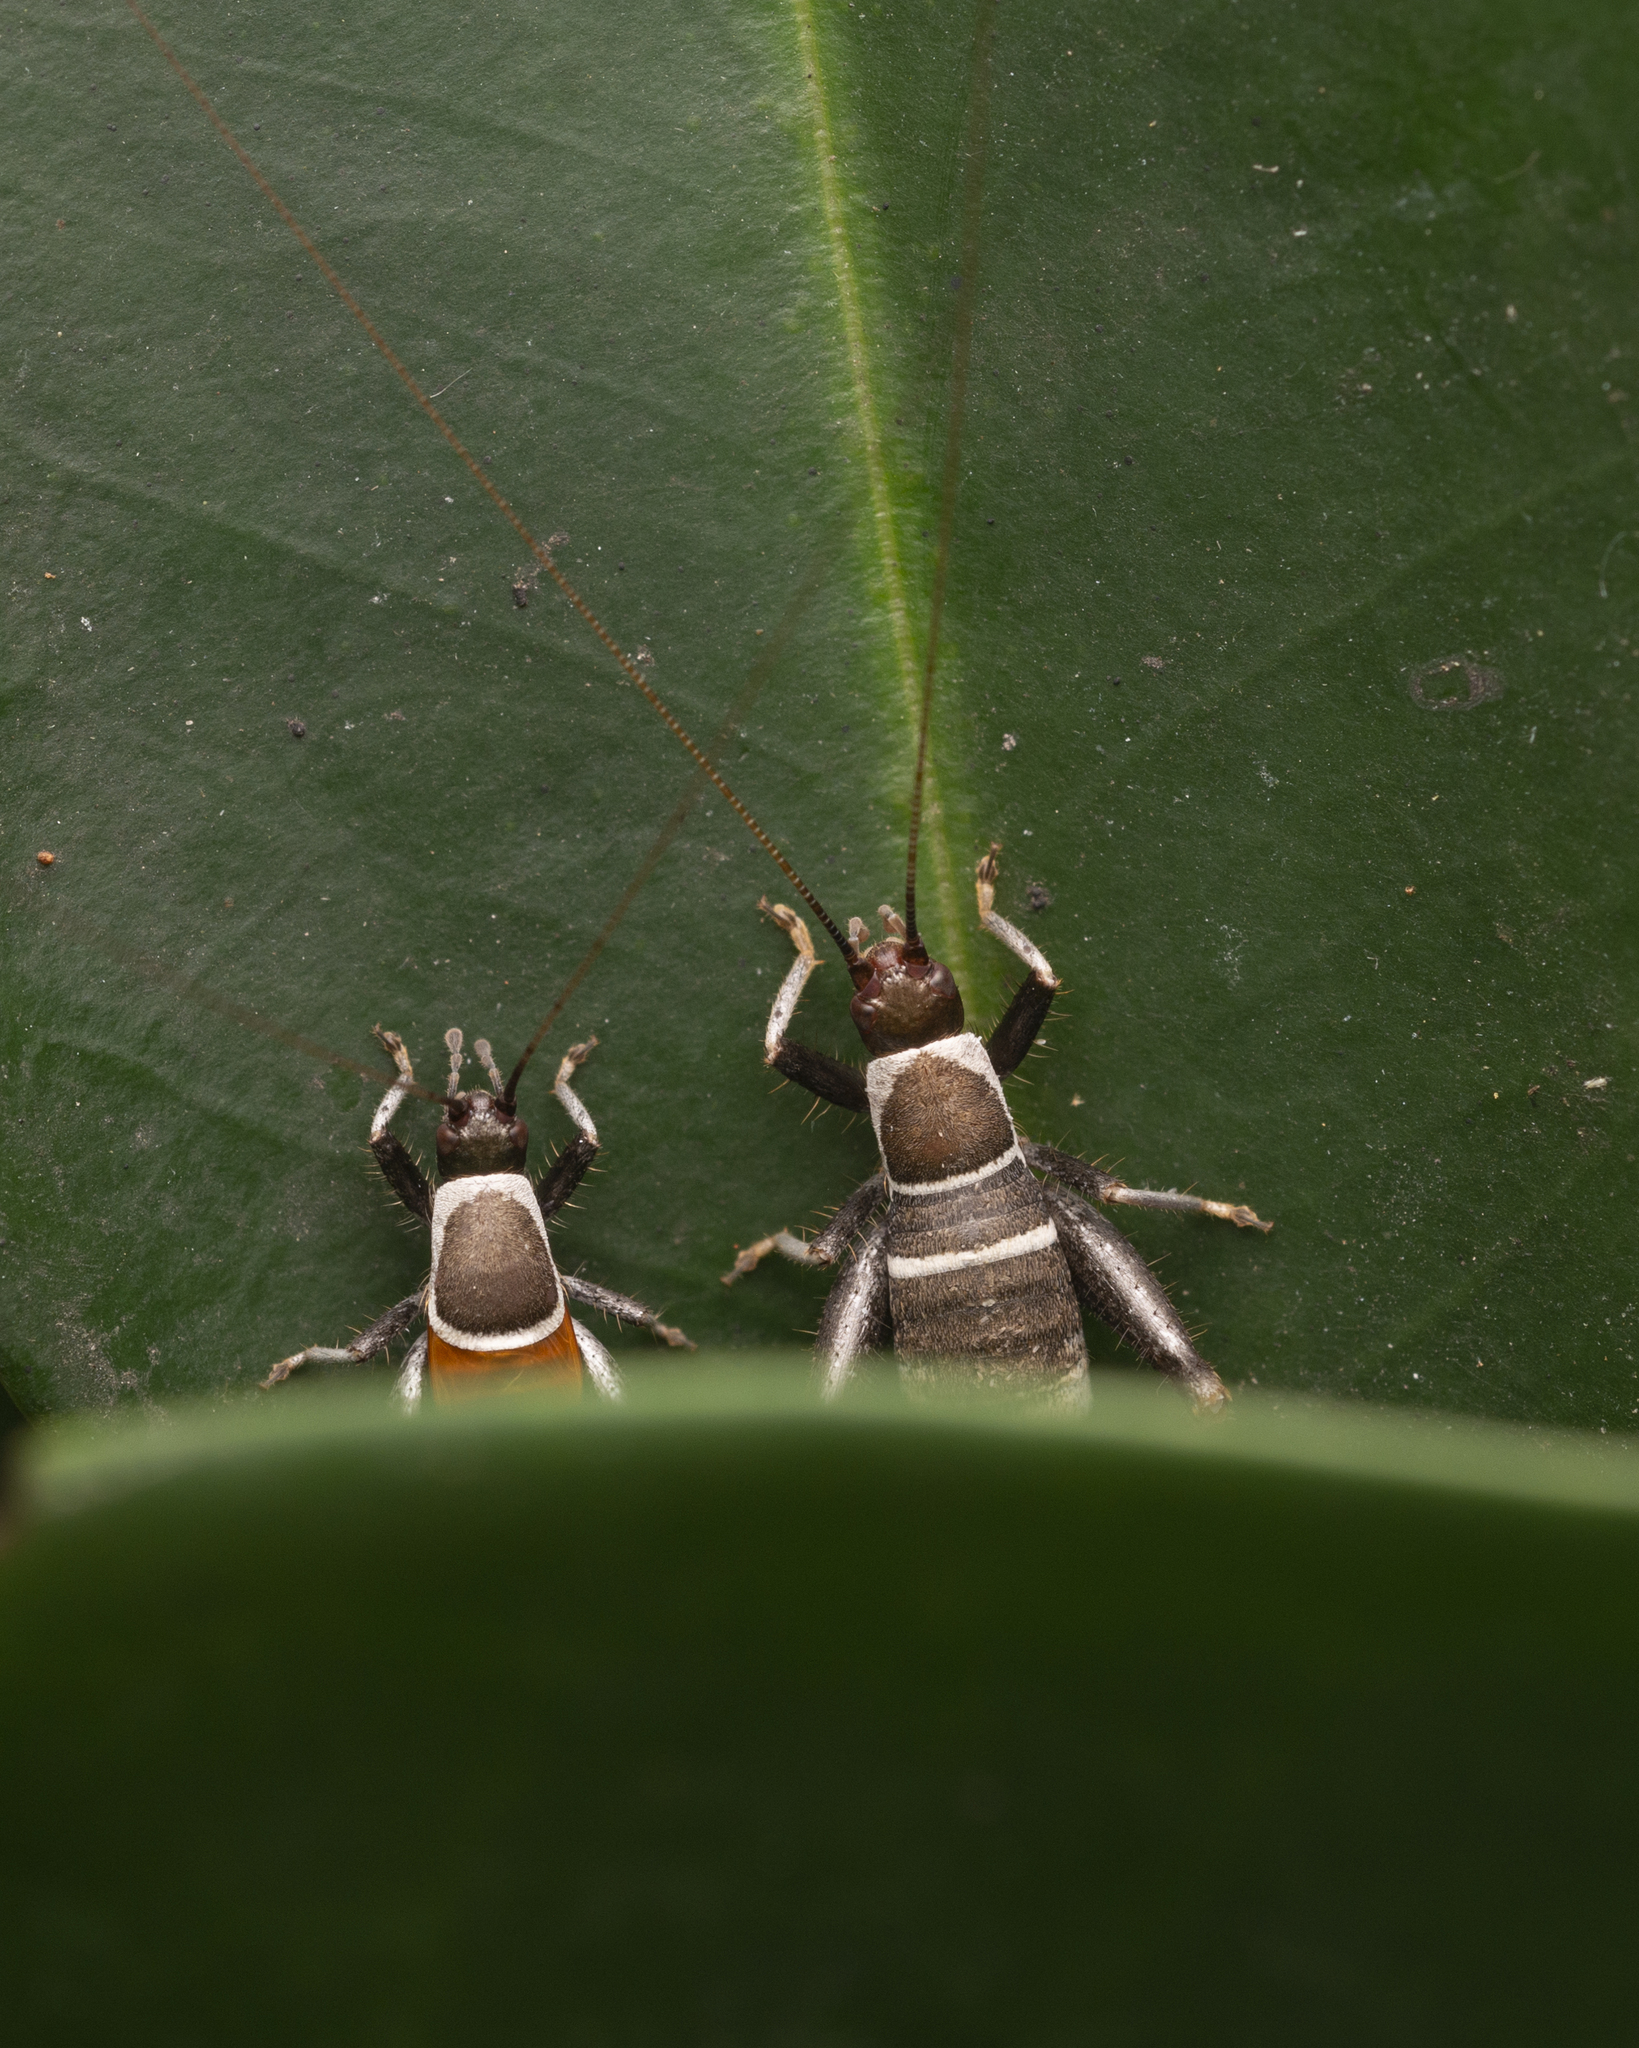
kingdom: Animalia
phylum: Arthropoda
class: Insecta
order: Orthoptera
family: Mogoplistidae
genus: Ornebius
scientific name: Ornebius fuscicerci
